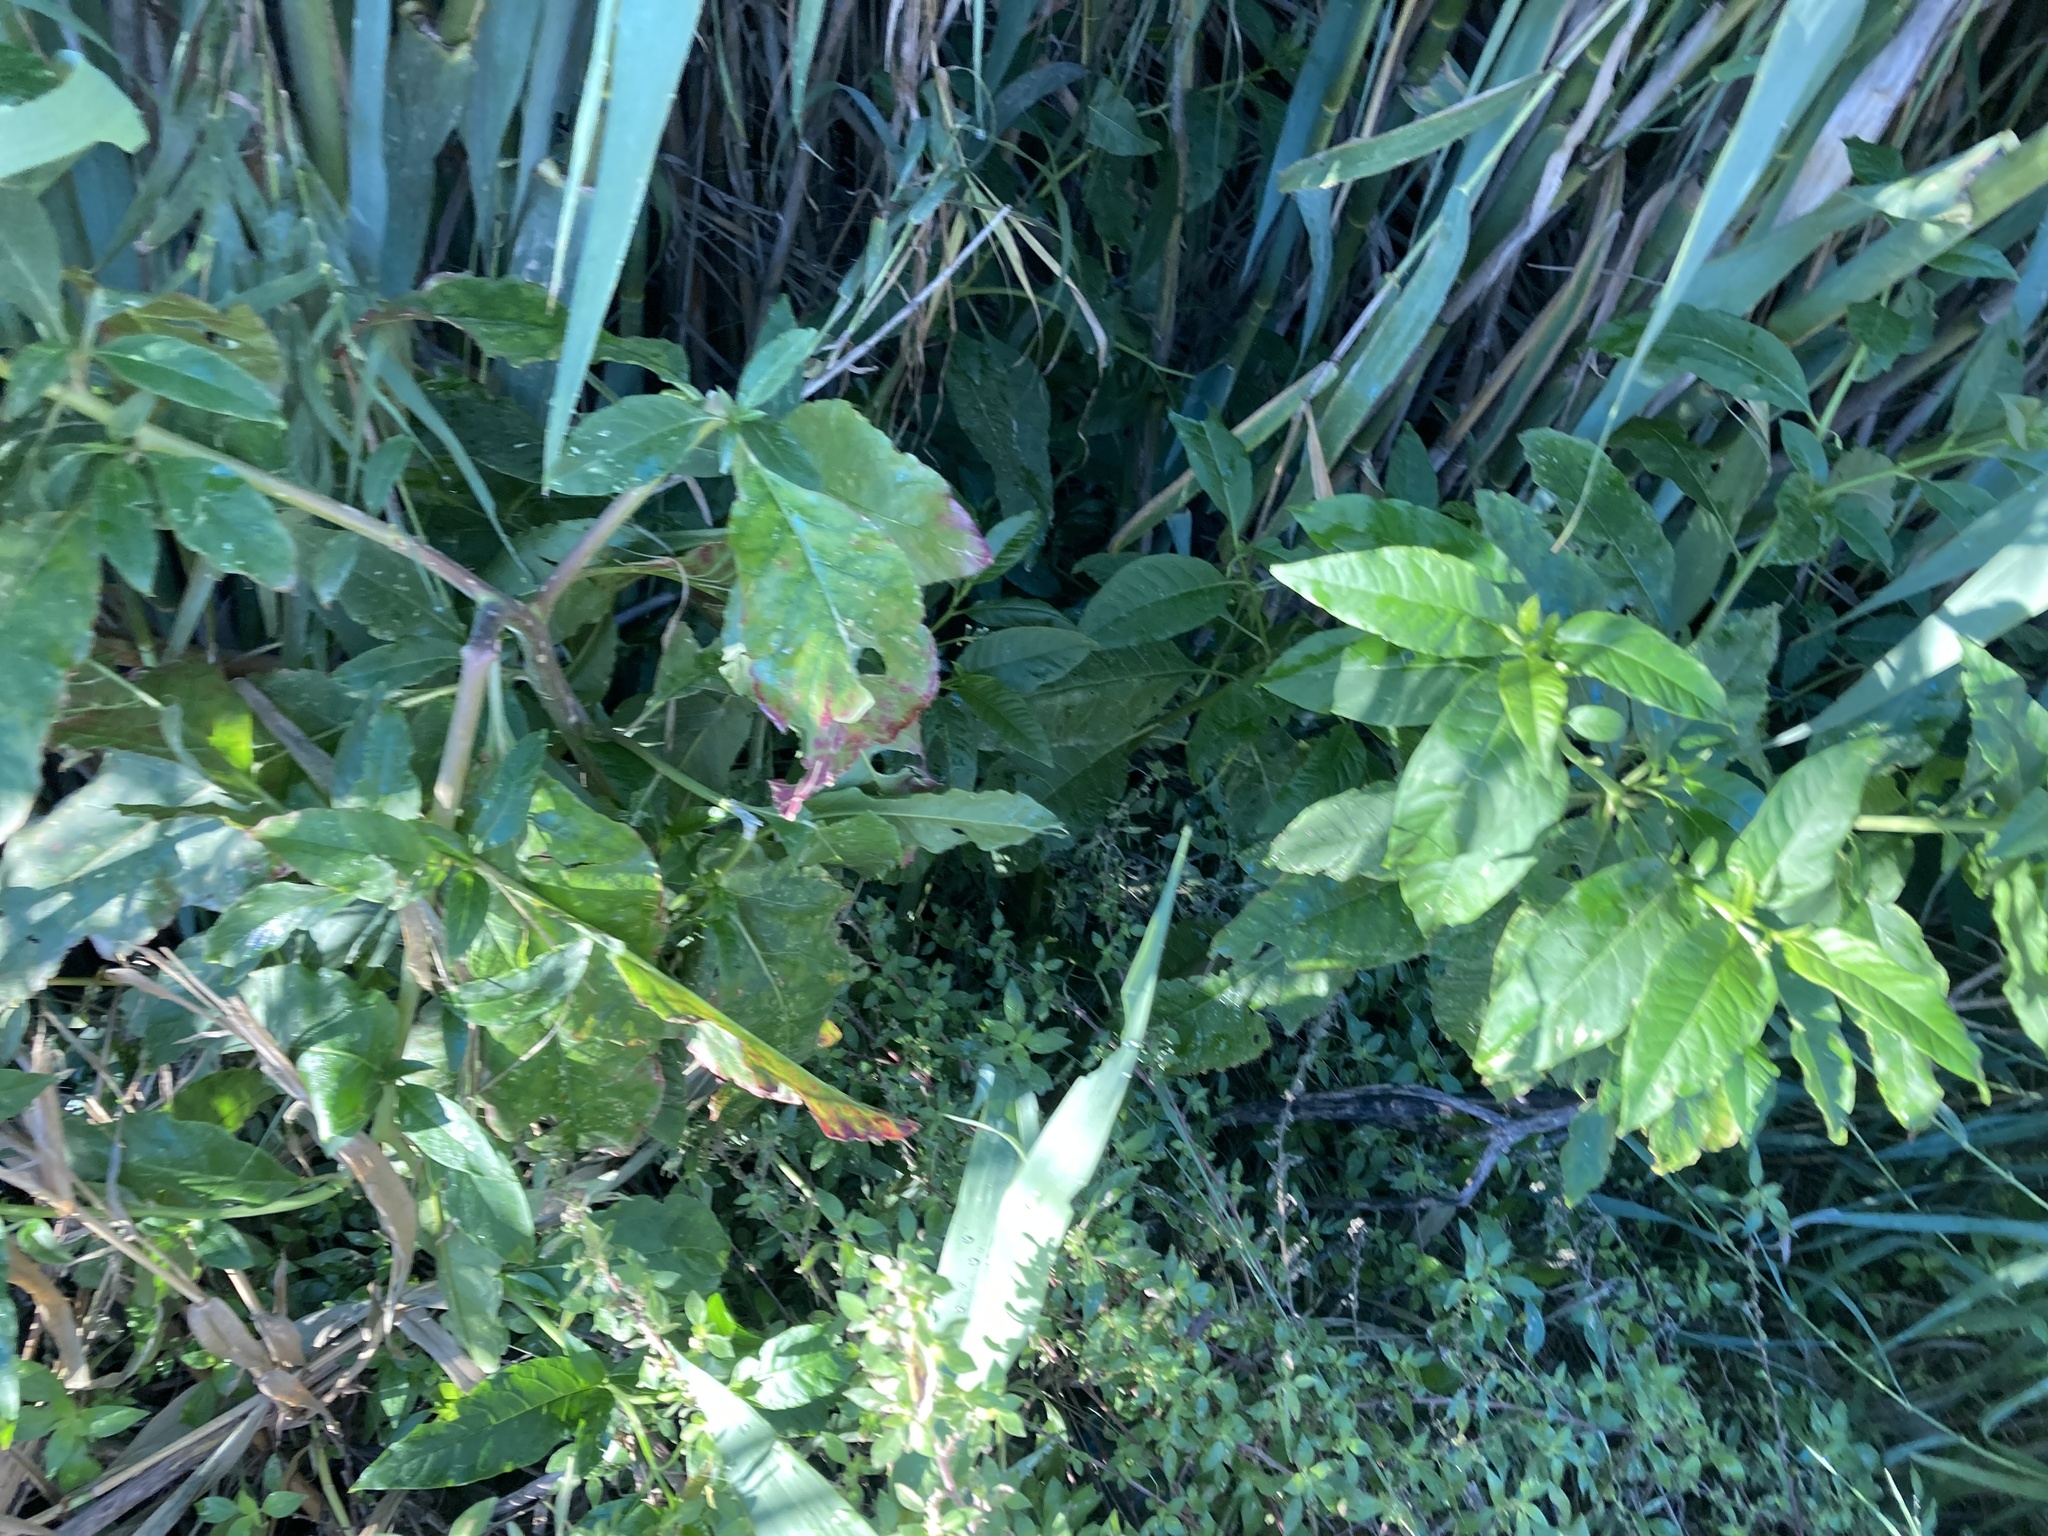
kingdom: Plantae
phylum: Tracheophyta
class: Magnoliopsida
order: Caryophyllales
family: Phytolaccaceae
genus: Phytolacca
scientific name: Phytolacca americana
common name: American pokeweed
